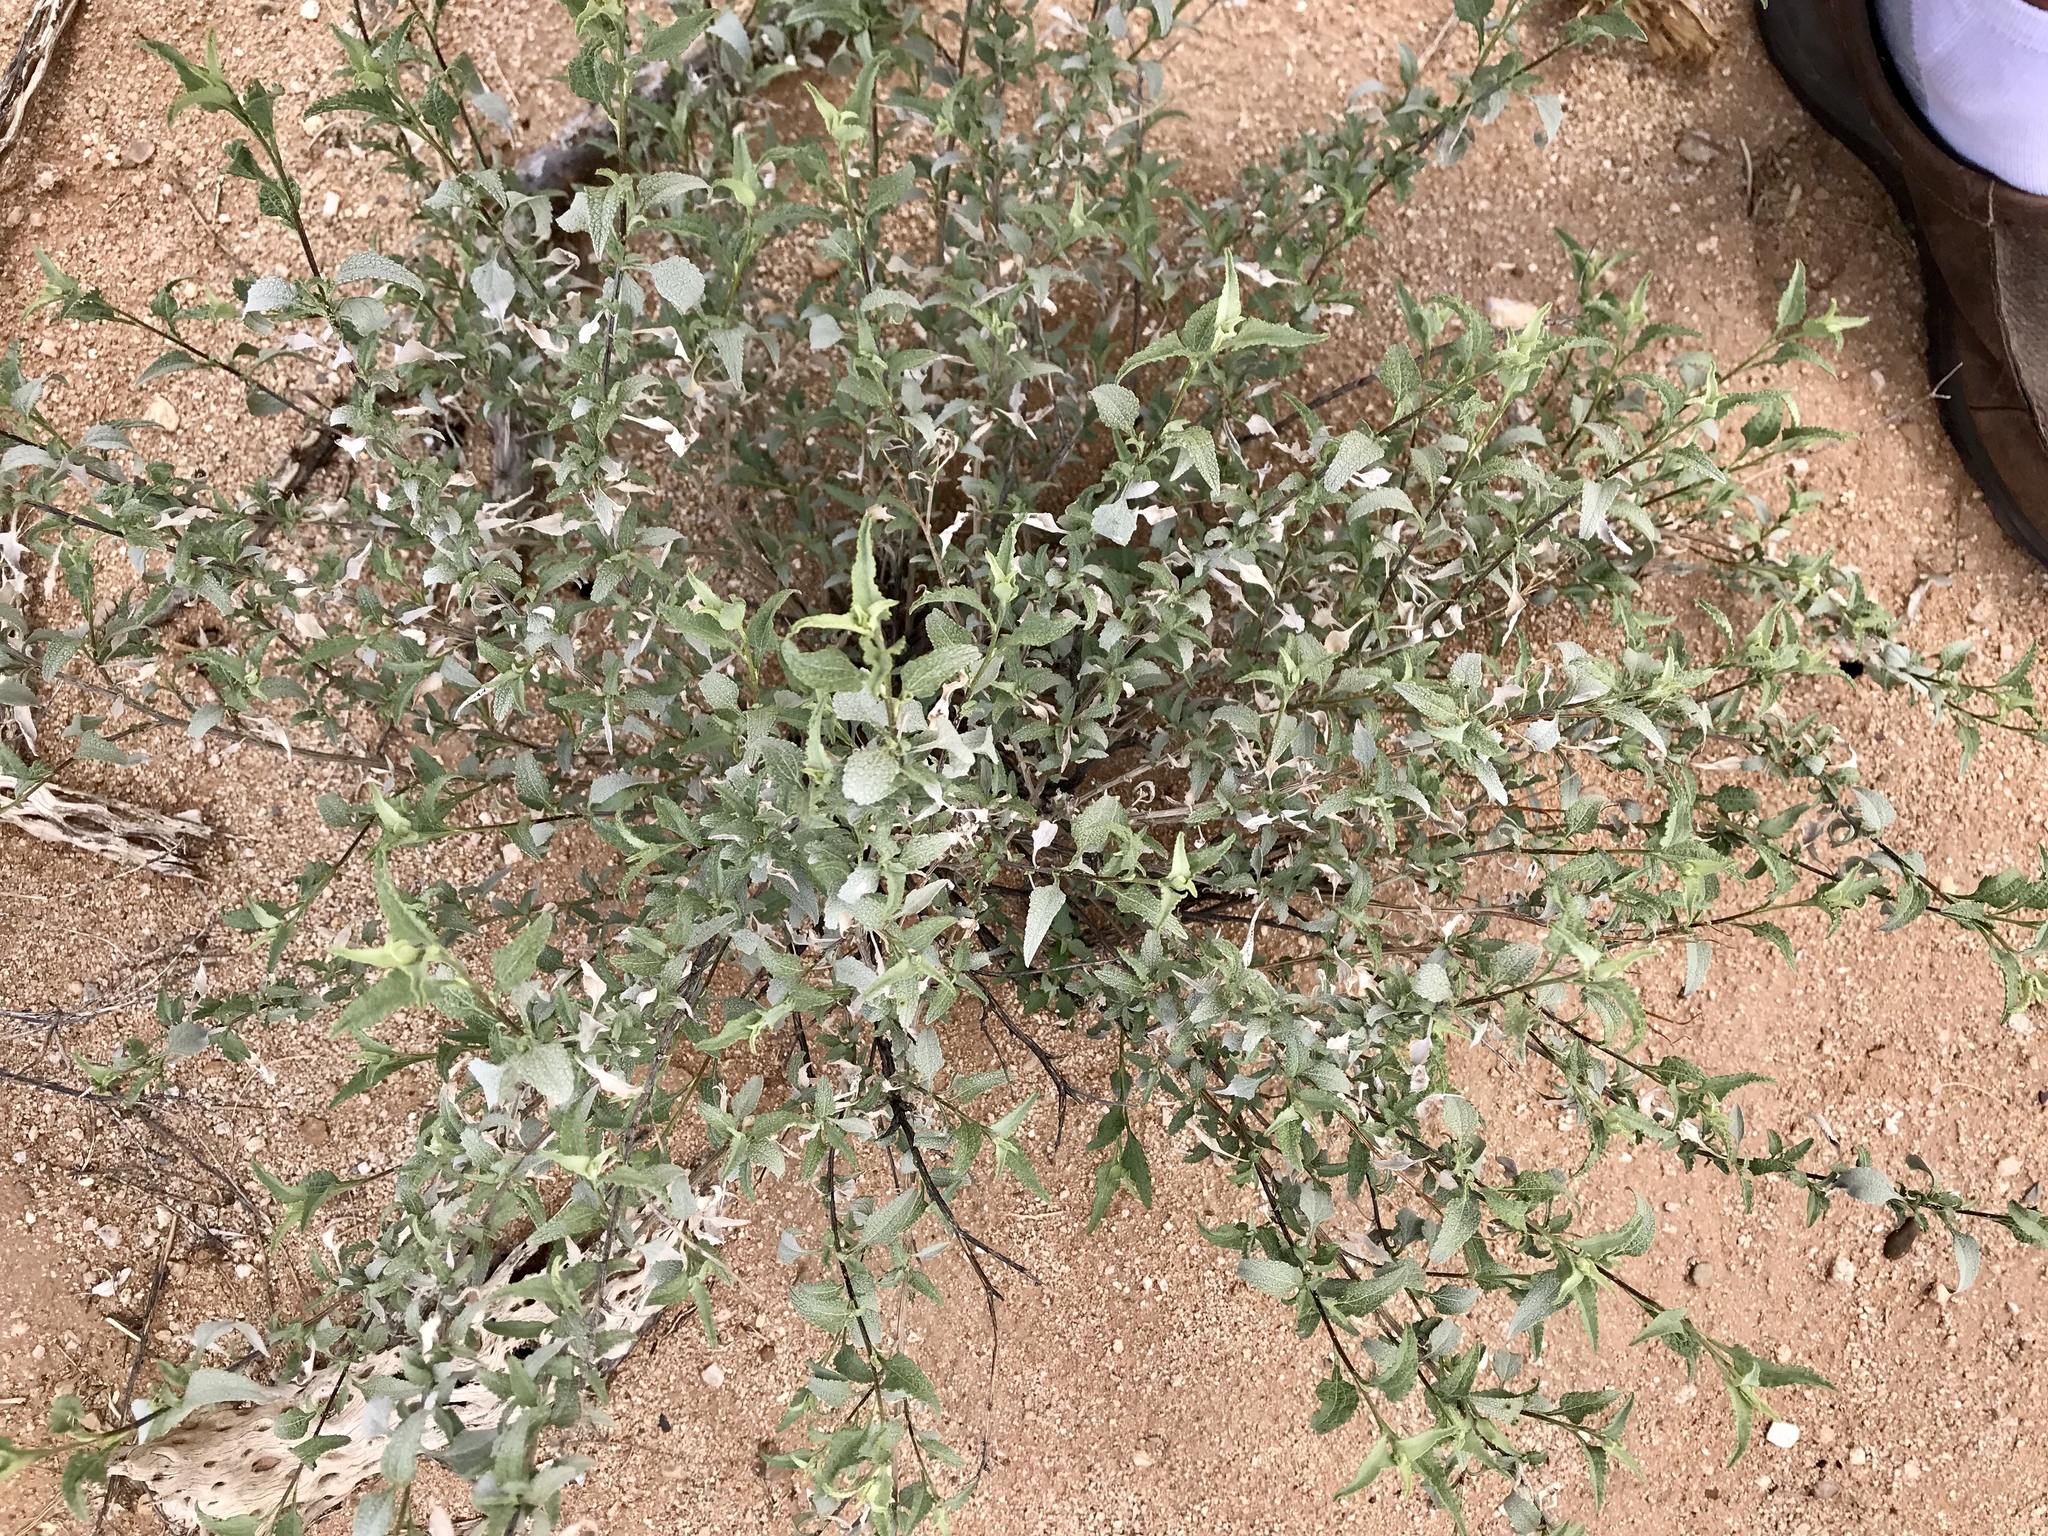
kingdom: Plantae
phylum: Tracheophyta
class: Magnoliopsida
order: Asterales
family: Asteraceae
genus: Ambrosia
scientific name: Ambrosia deltoidea
